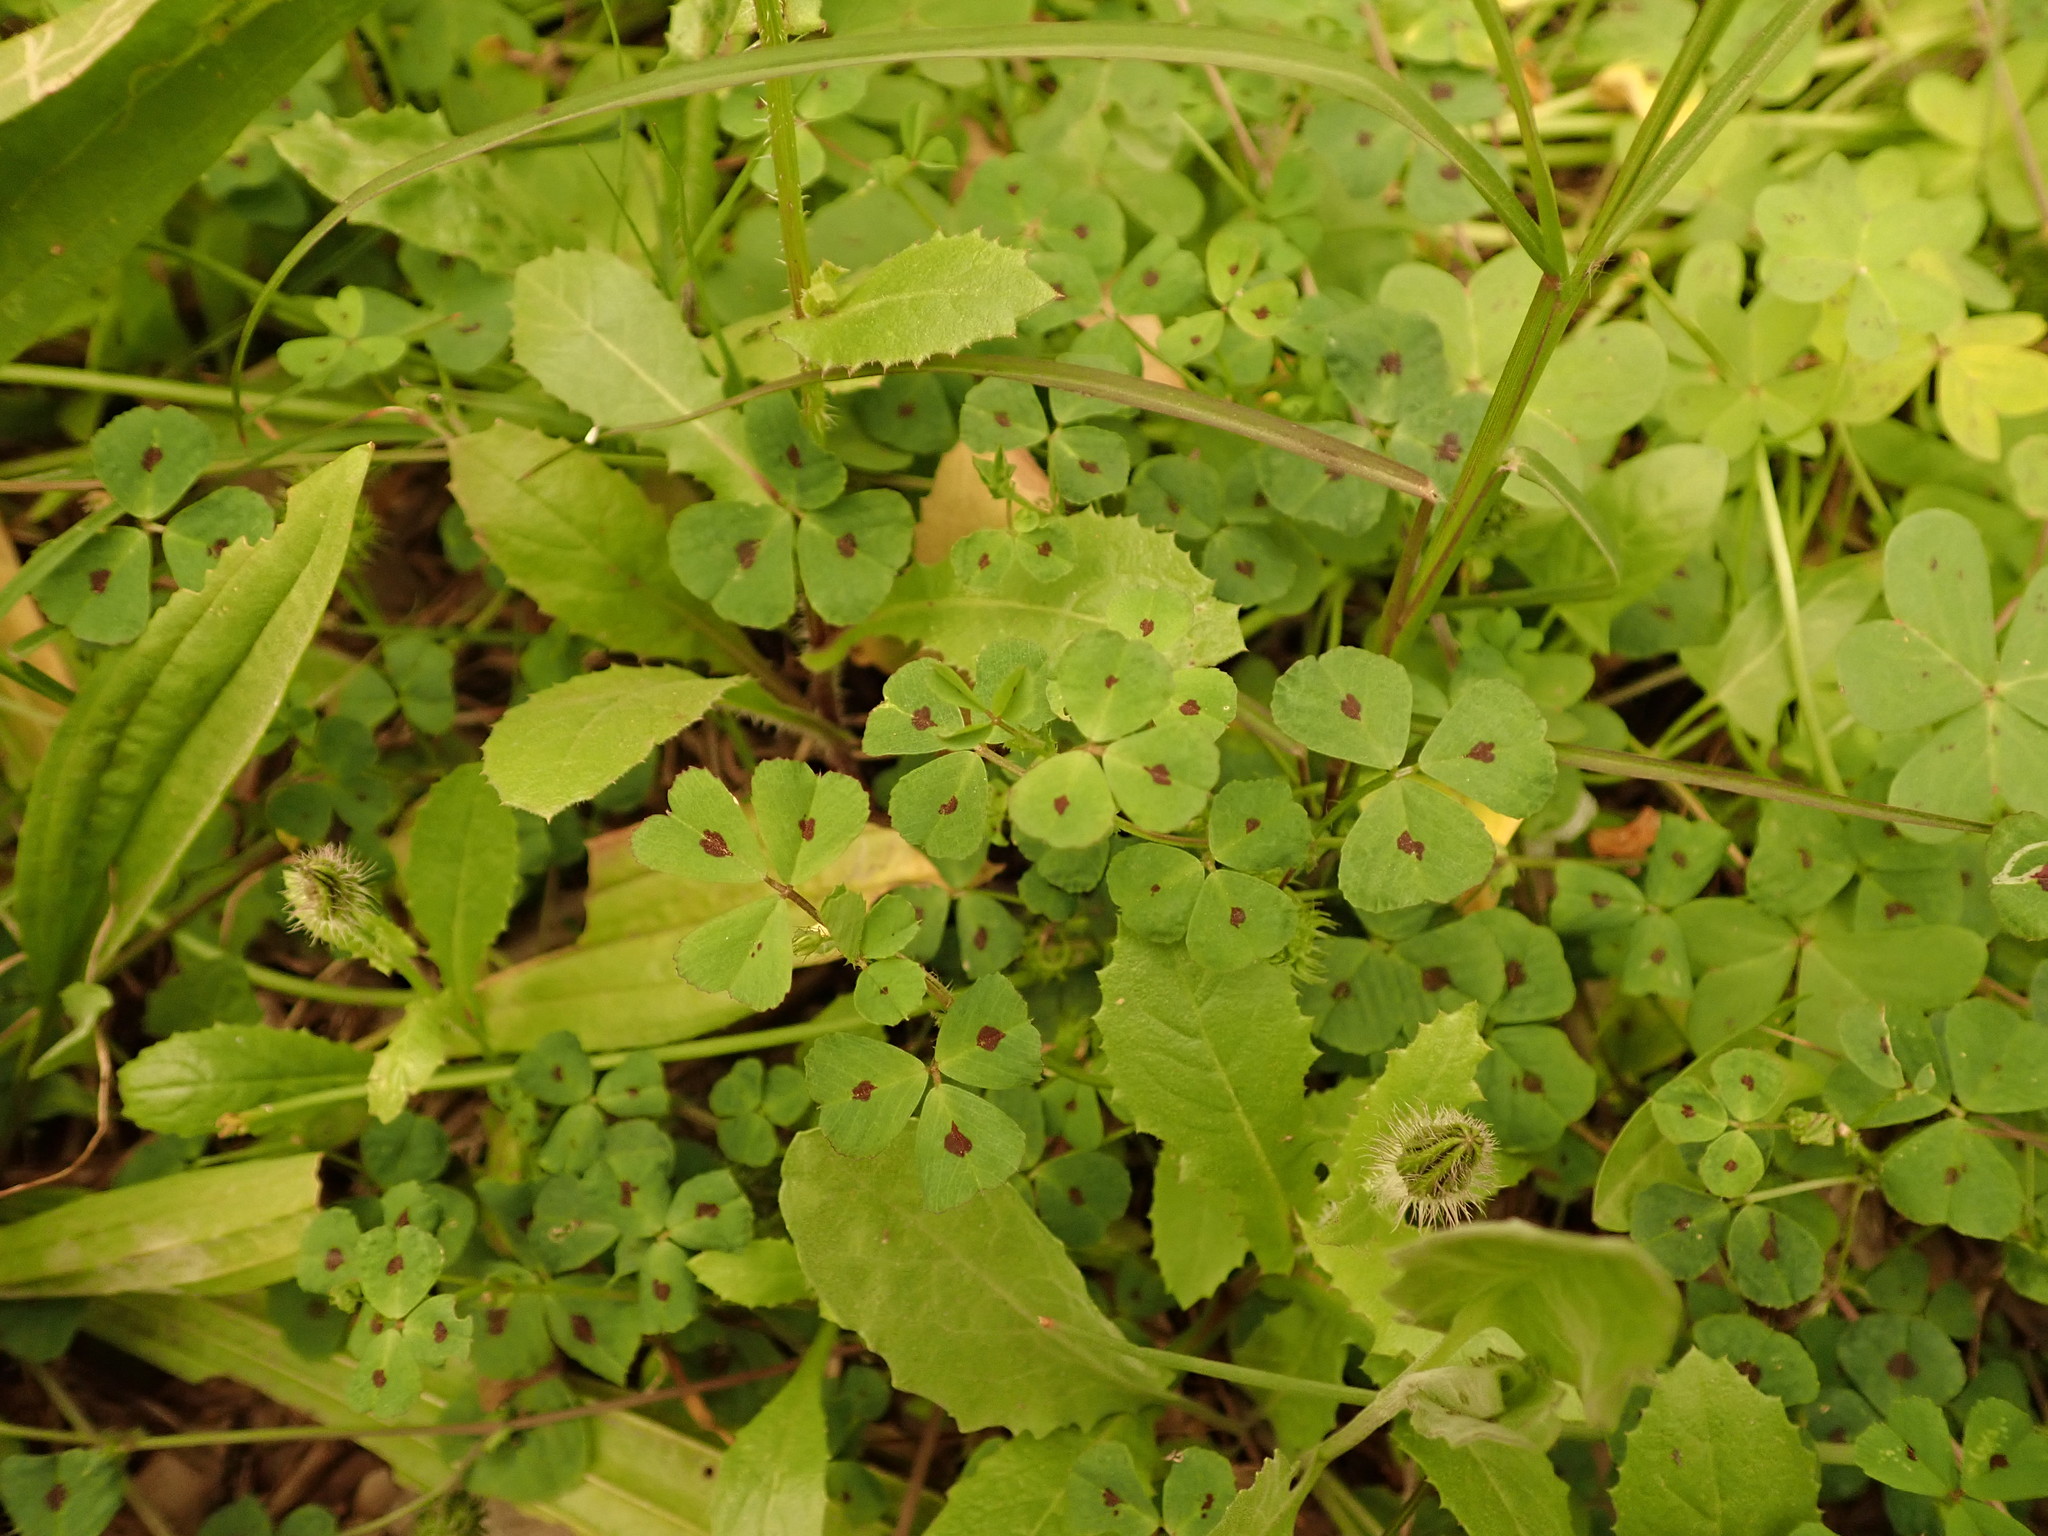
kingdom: Plantae
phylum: Tracheophyta
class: Magnoliopsida
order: Fabales
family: Fabaceae
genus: Medicago
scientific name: Medicago arabica
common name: Spotted medick
